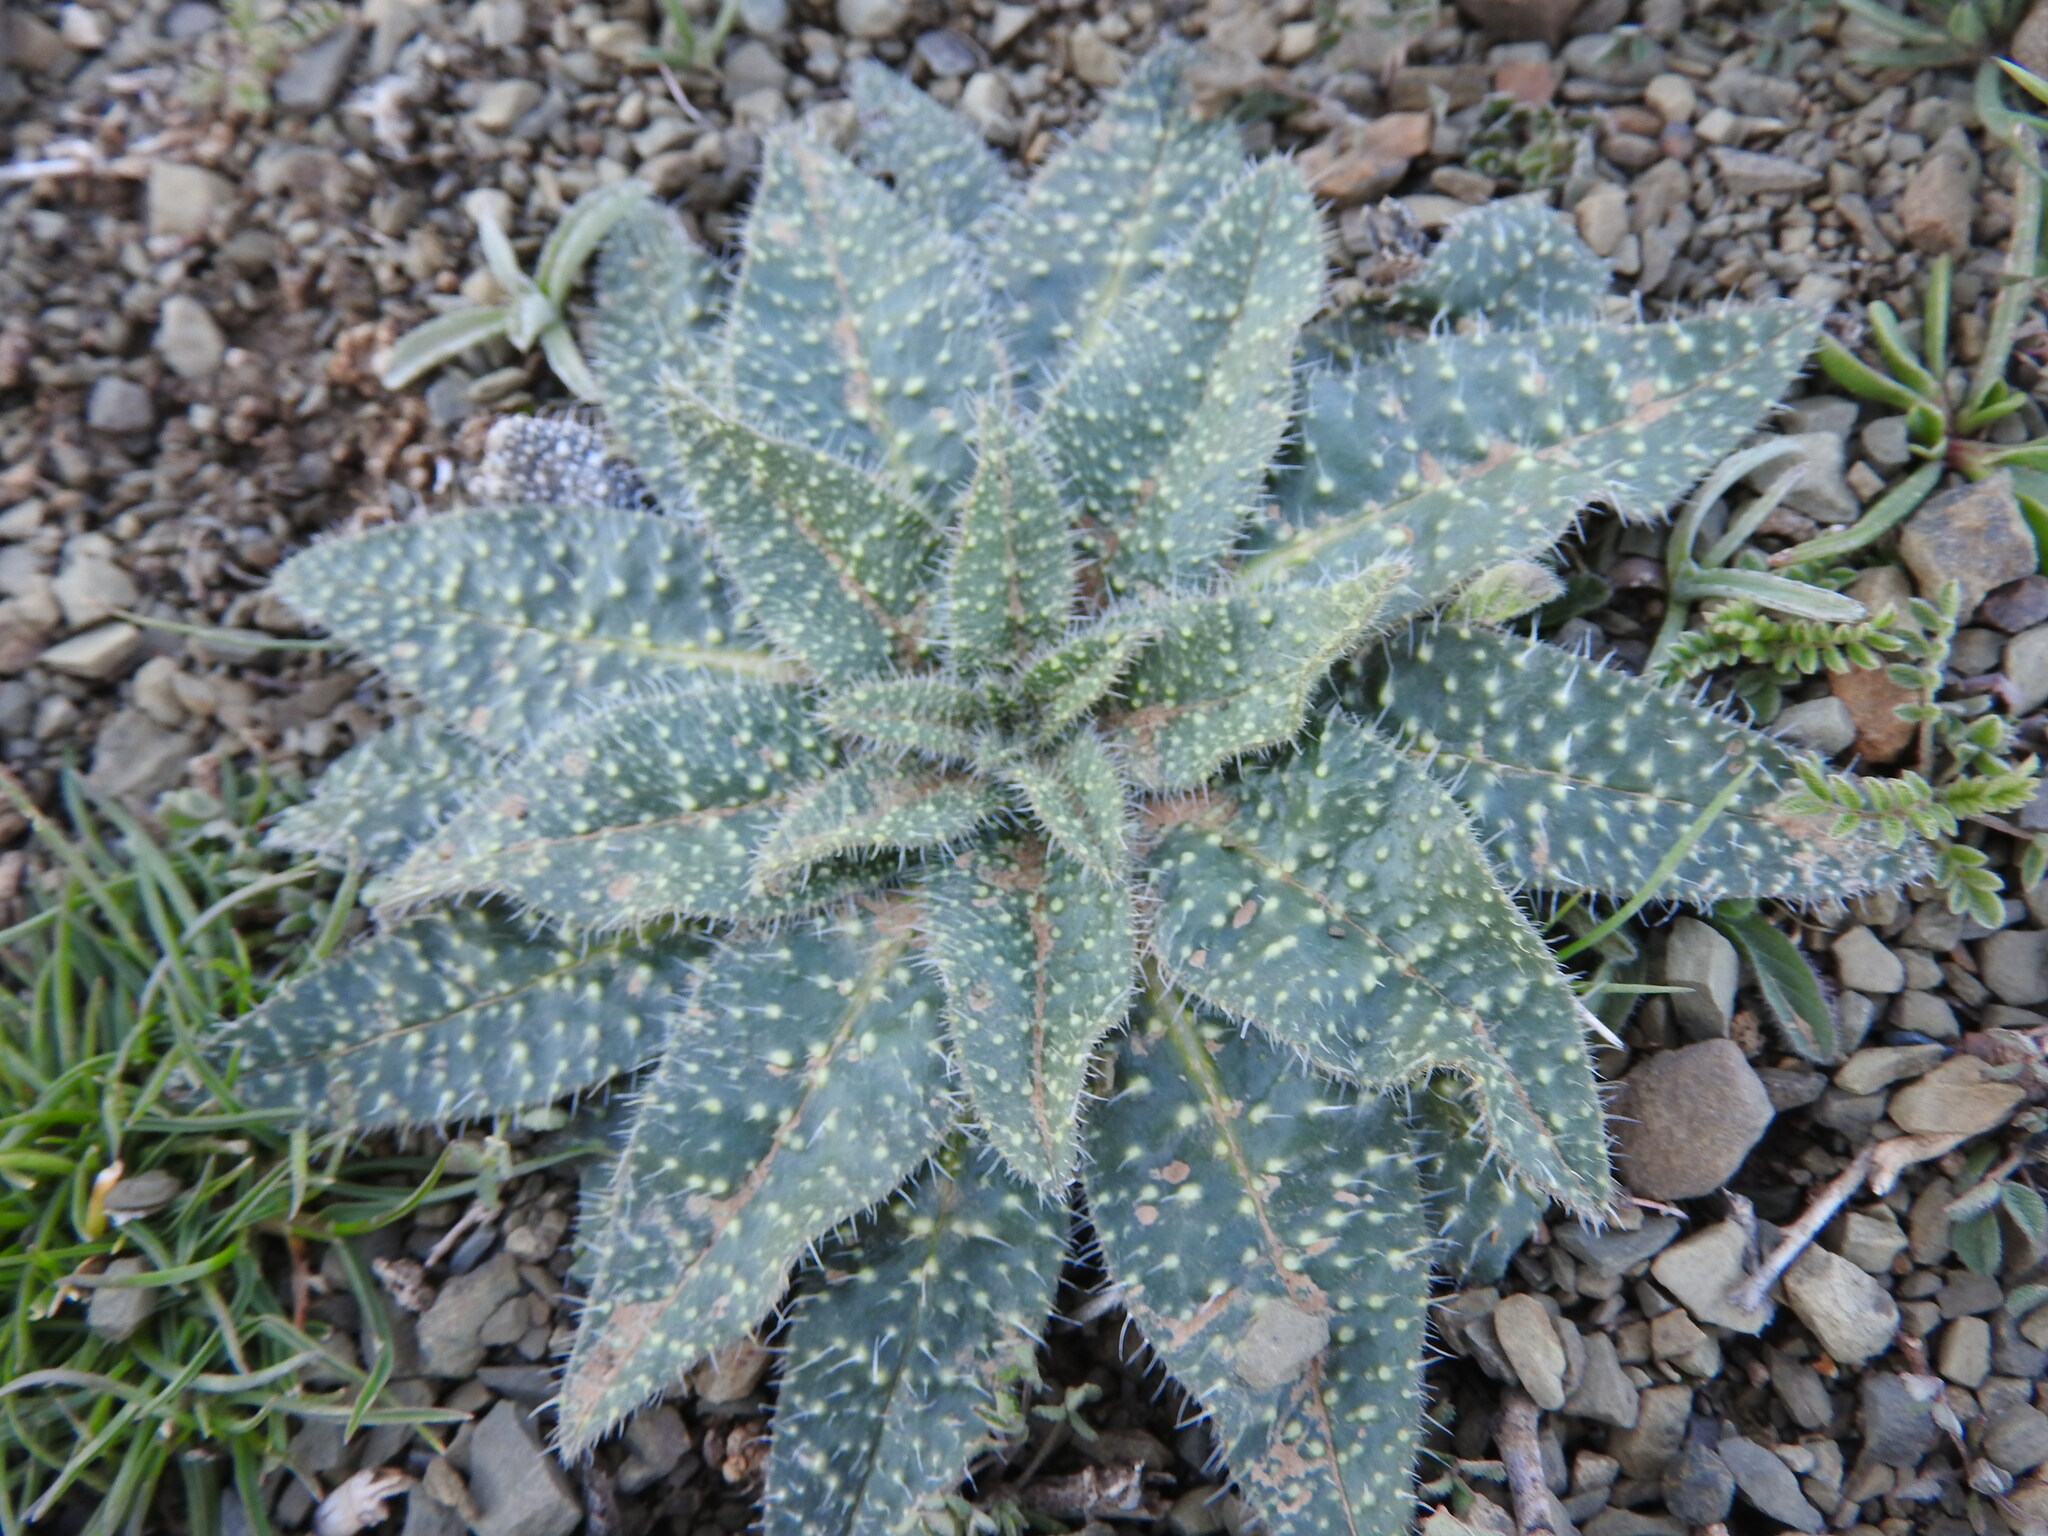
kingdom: Plantae
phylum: Tracheophyta
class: Magnoliopsida
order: Boraginales
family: Boraginaceae
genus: Echium
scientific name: Echium asperrimum
